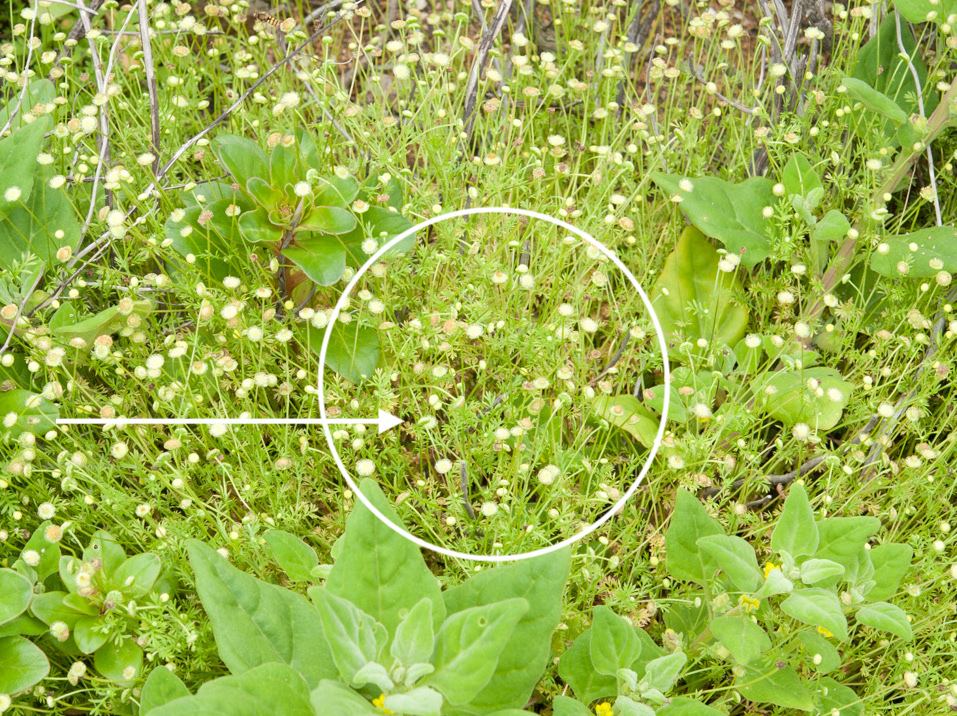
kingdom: Plantae
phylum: Tracheophyta
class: Magnoliopsida
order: Asterales
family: Asteraceae
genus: Cotula
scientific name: Cotula australis
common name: Australian waterbuttons
